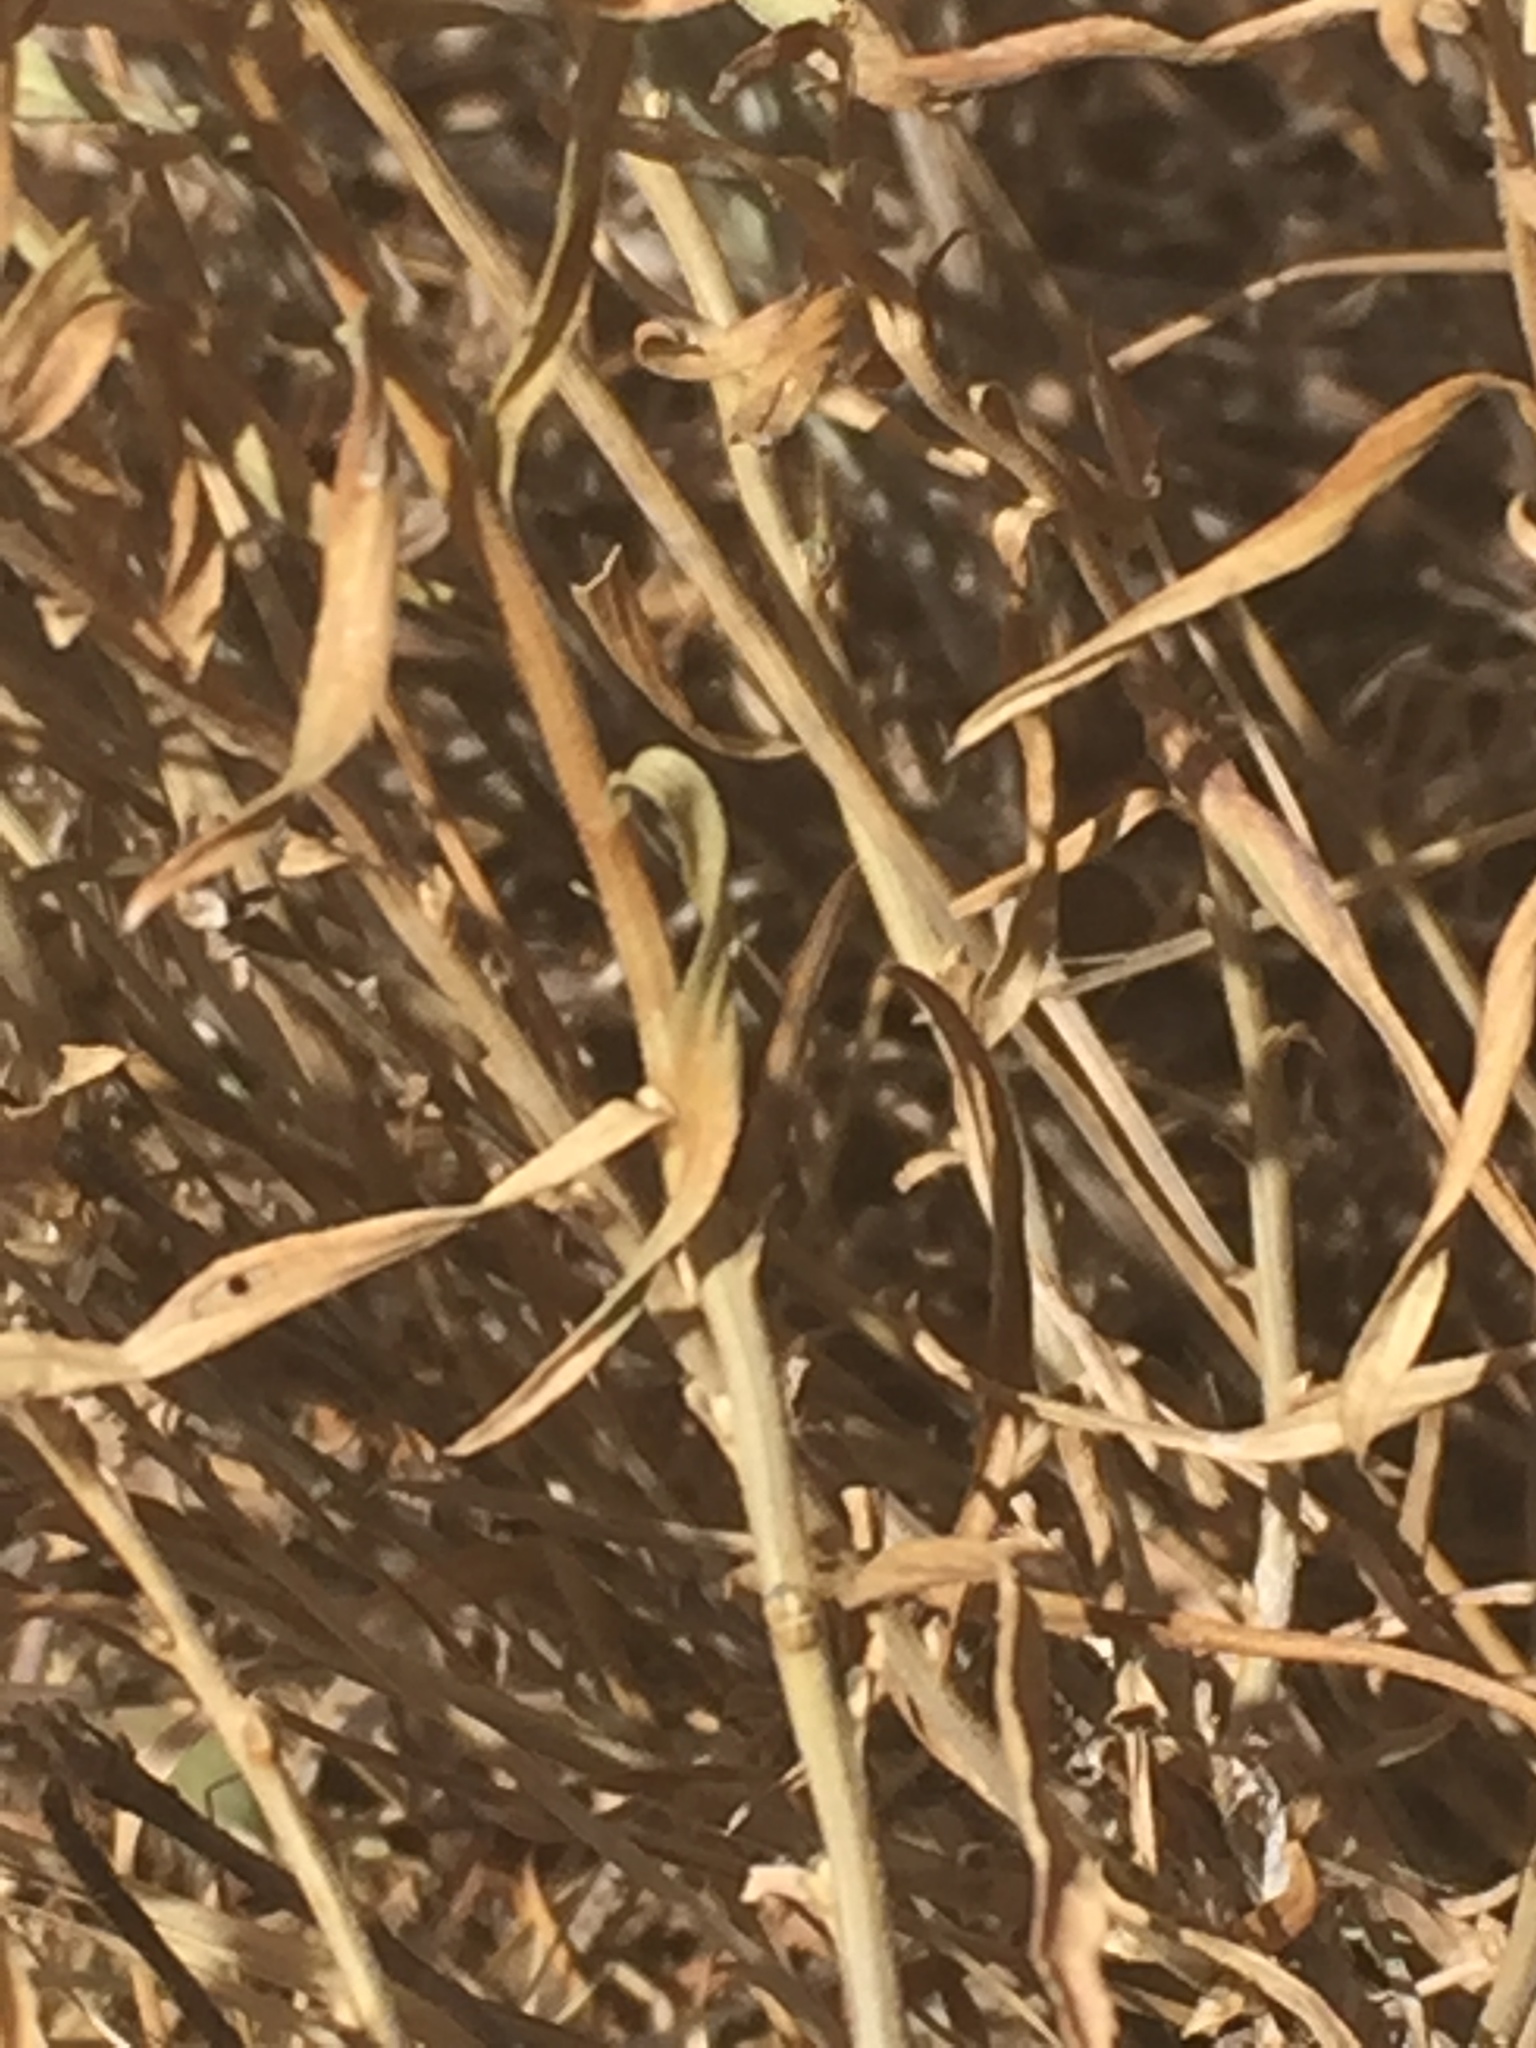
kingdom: Plantae
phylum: Tracheophyta
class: Magnoliopsida
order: Asterales
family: Asteraceae
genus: Chrysothamnus
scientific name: Chrysothamnus viscidiflorus
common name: Yellow rabbitbrush
